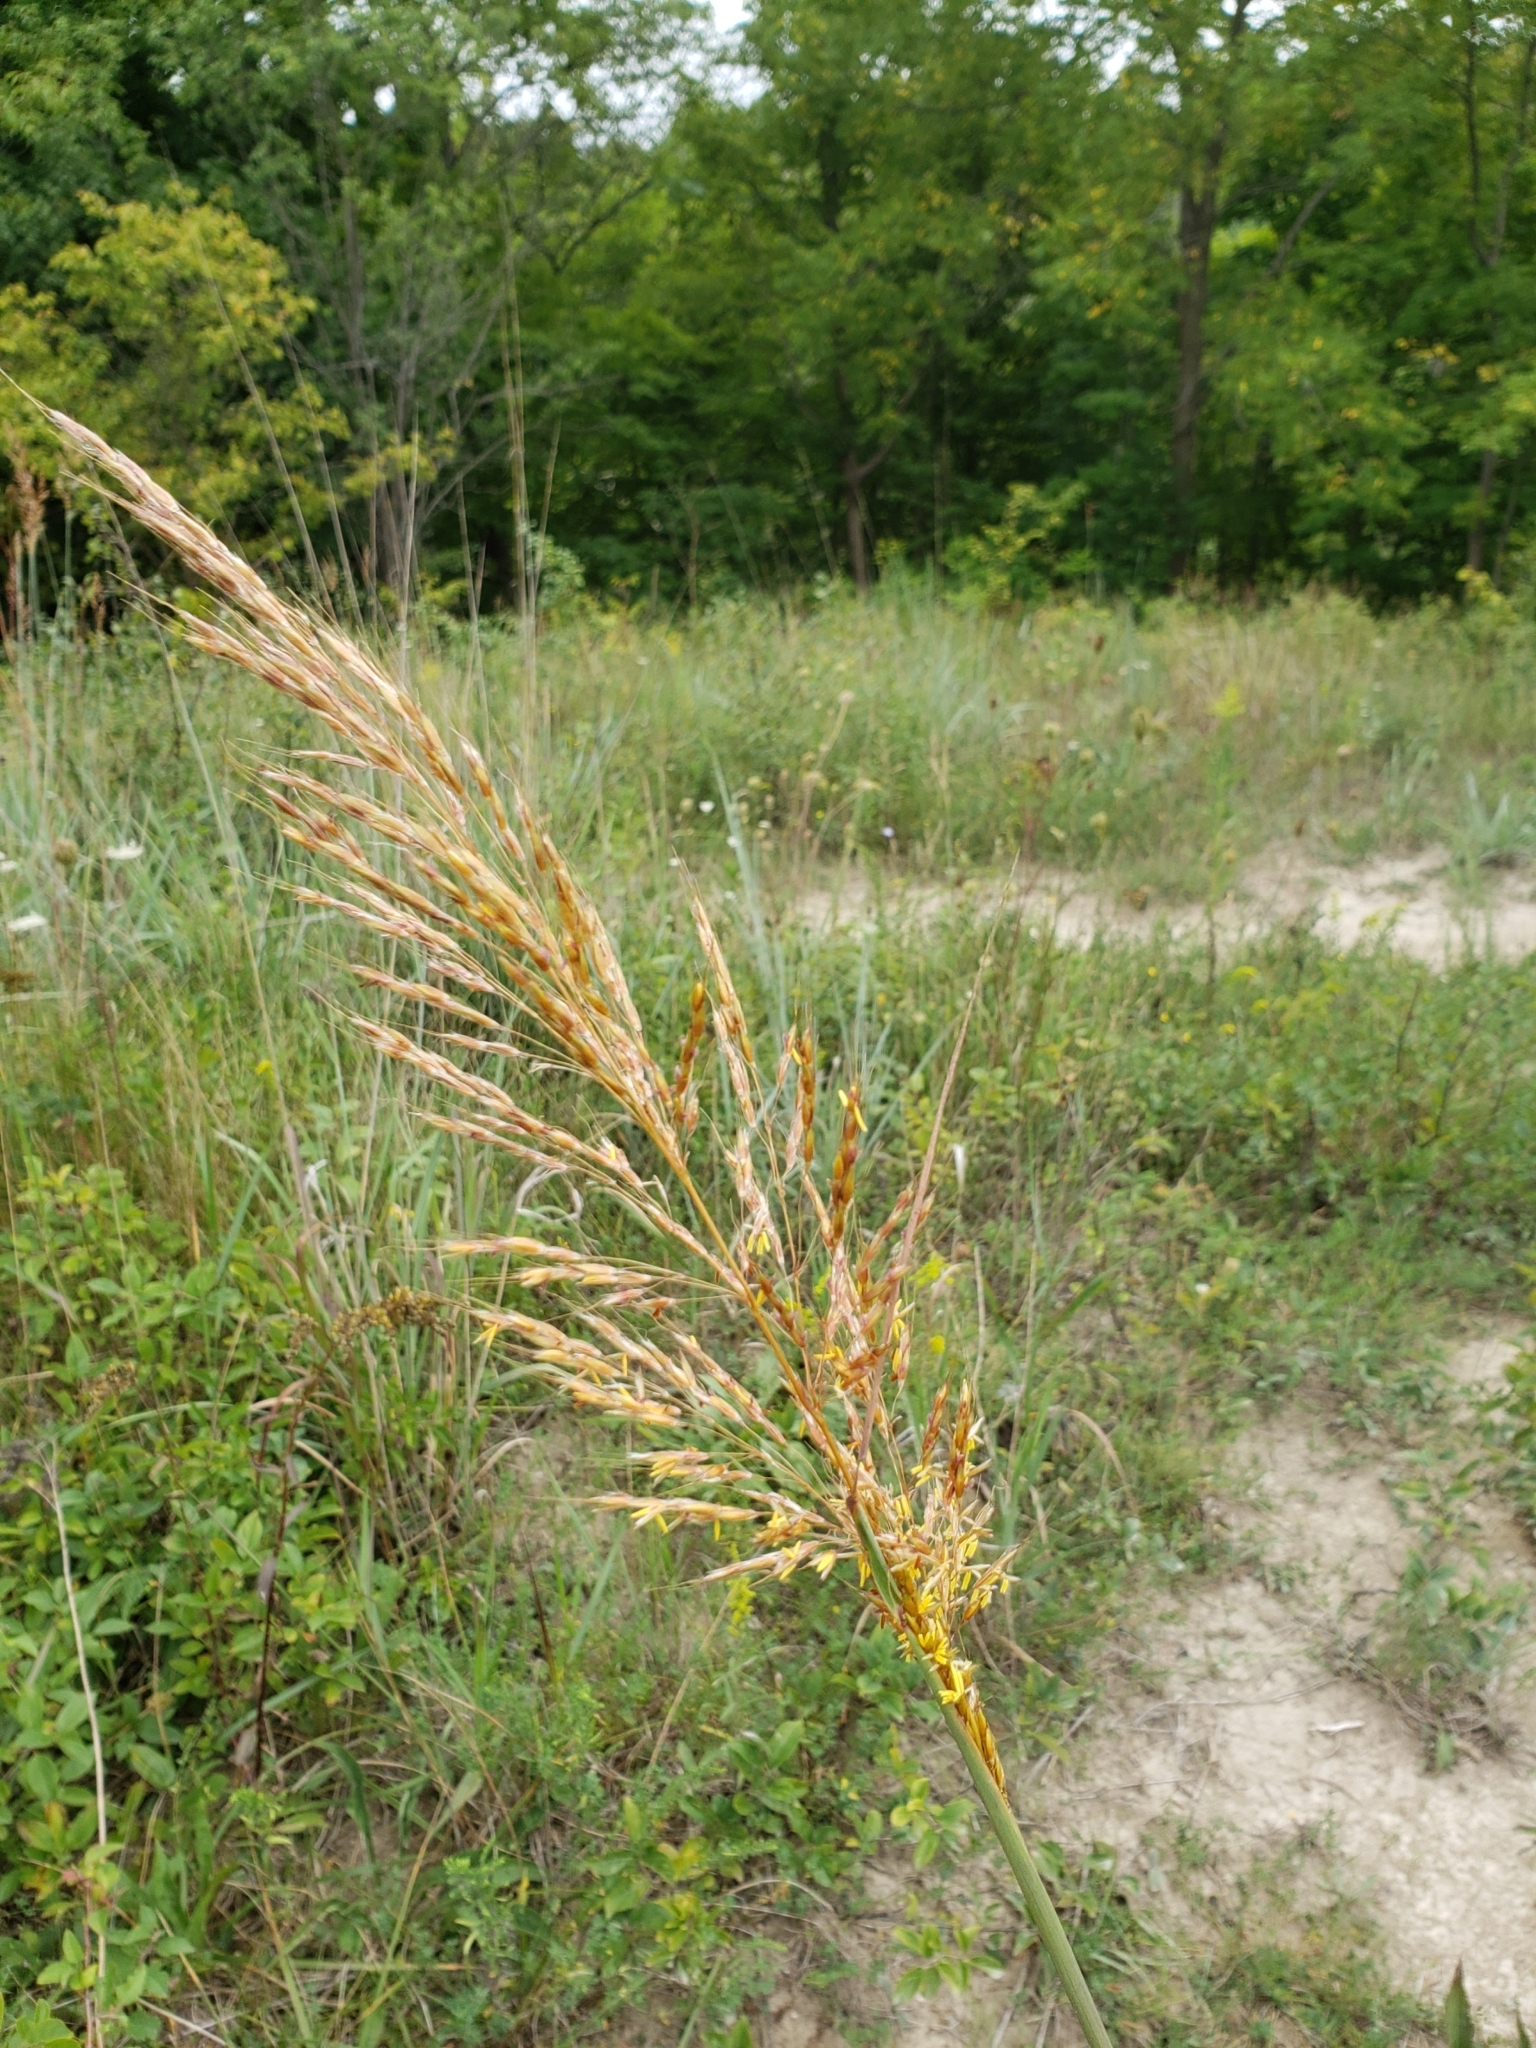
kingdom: Plantae
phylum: Tracheophyta
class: Liliopsida
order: Poales
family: Poaceae
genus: Sorghastrum
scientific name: Sorghastrum nutans
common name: Indian grass
